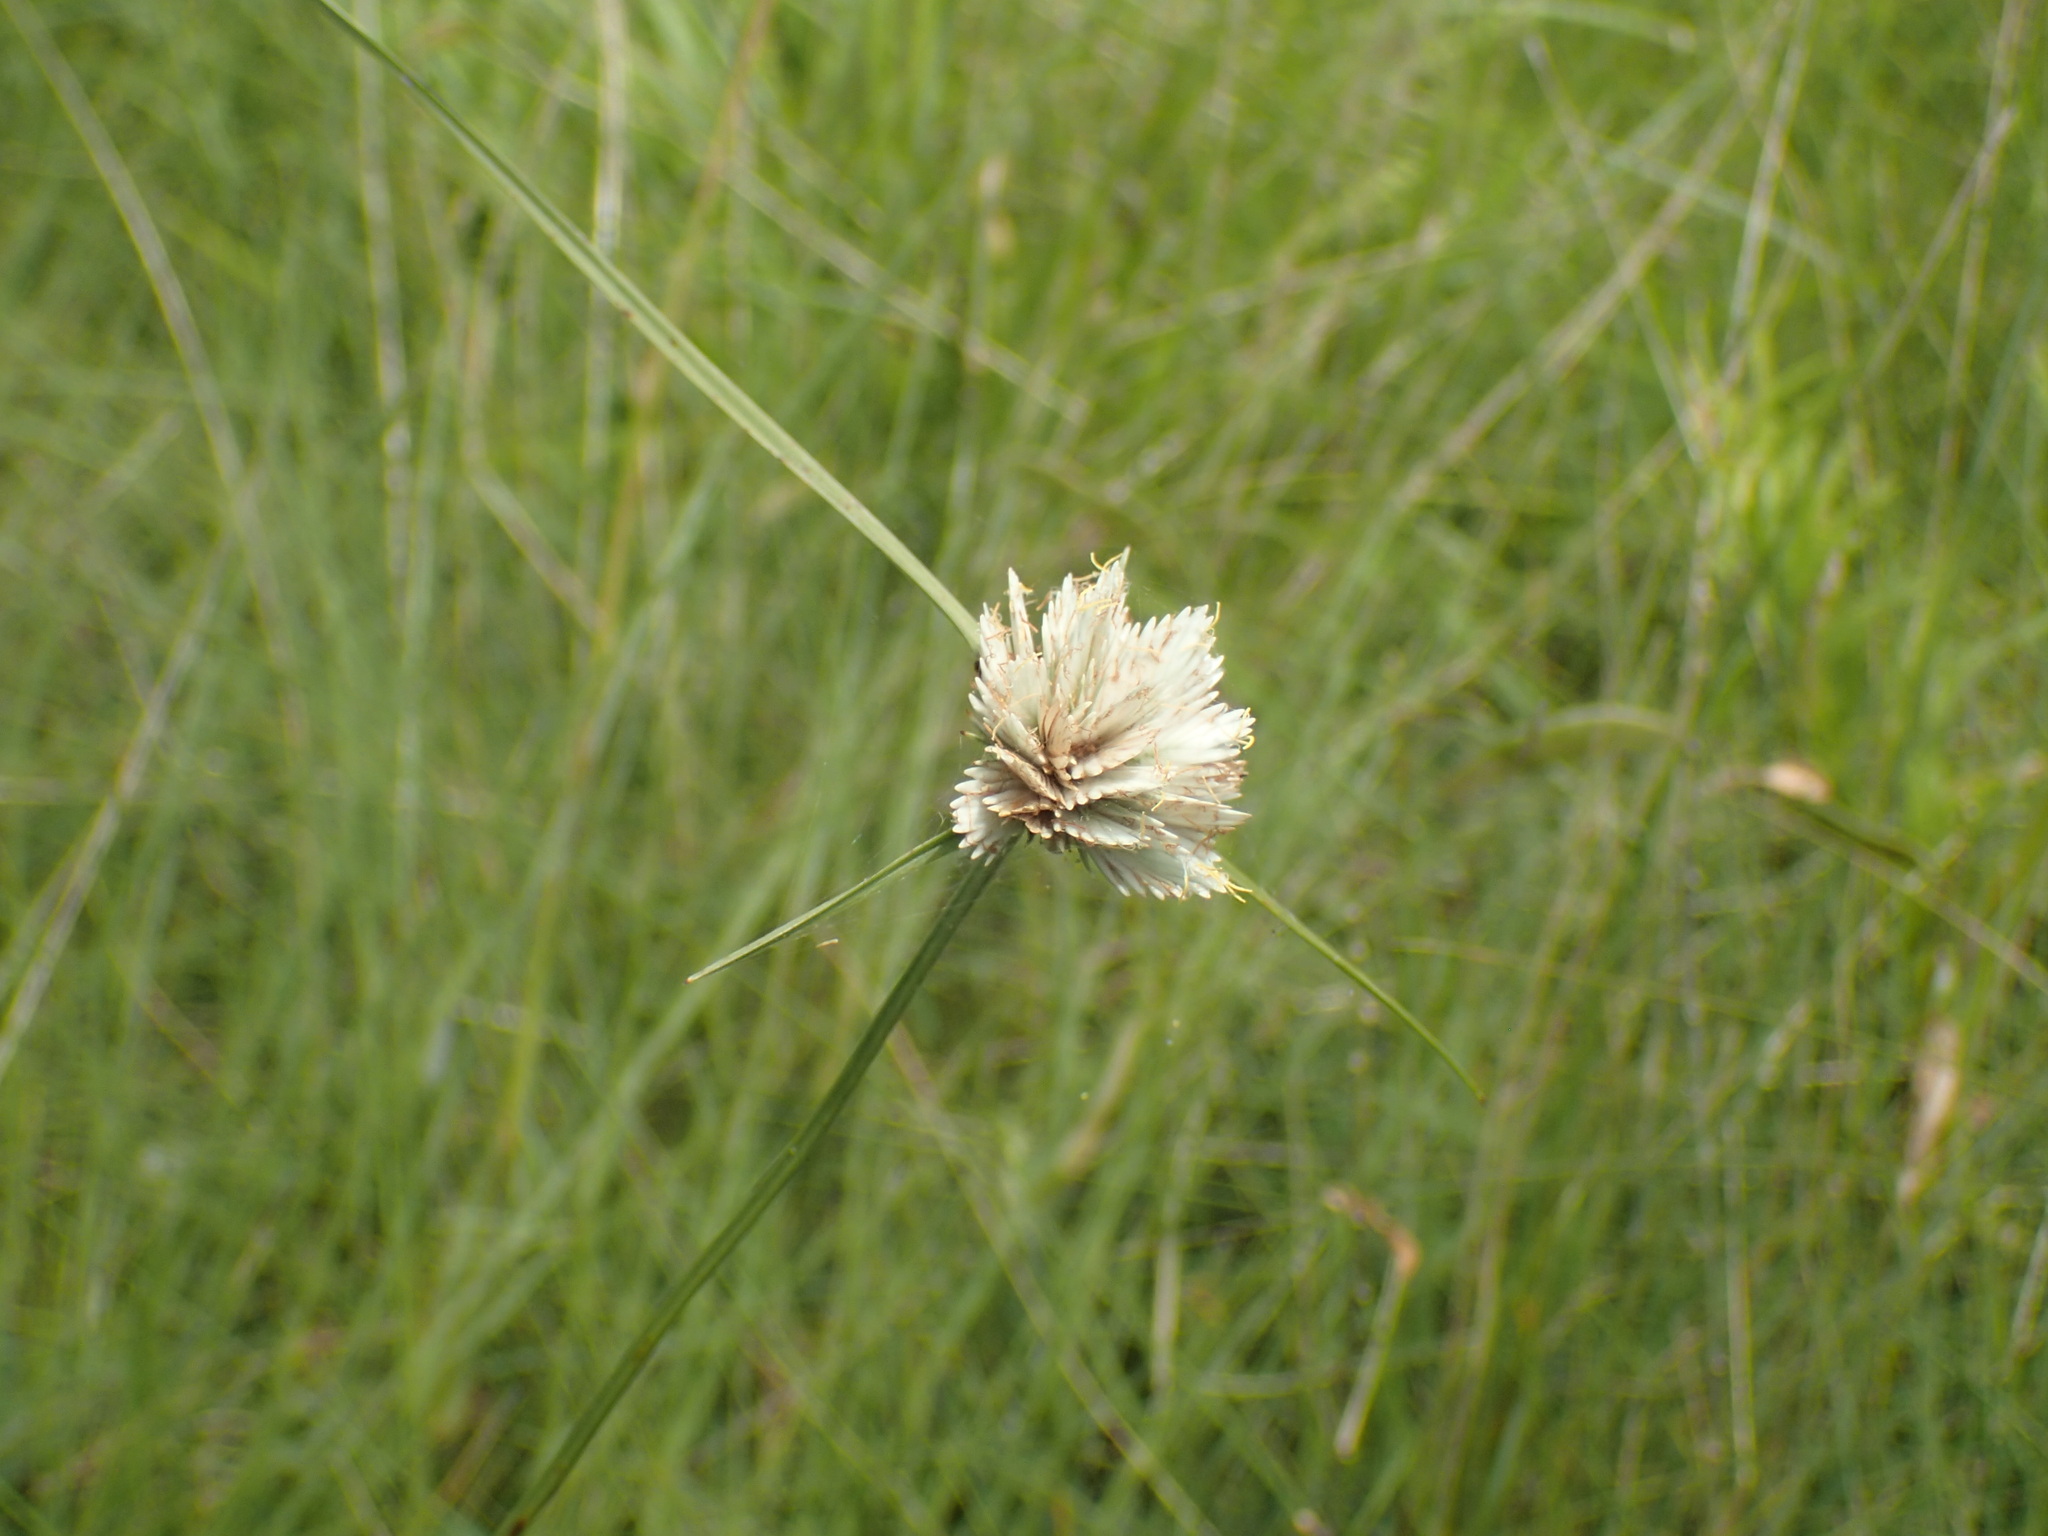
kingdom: Plantae
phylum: Tracheophyta
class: Liliopsida
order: Poales
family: Cyperaceae
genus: Cyperus
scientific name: Cyperus niveus
